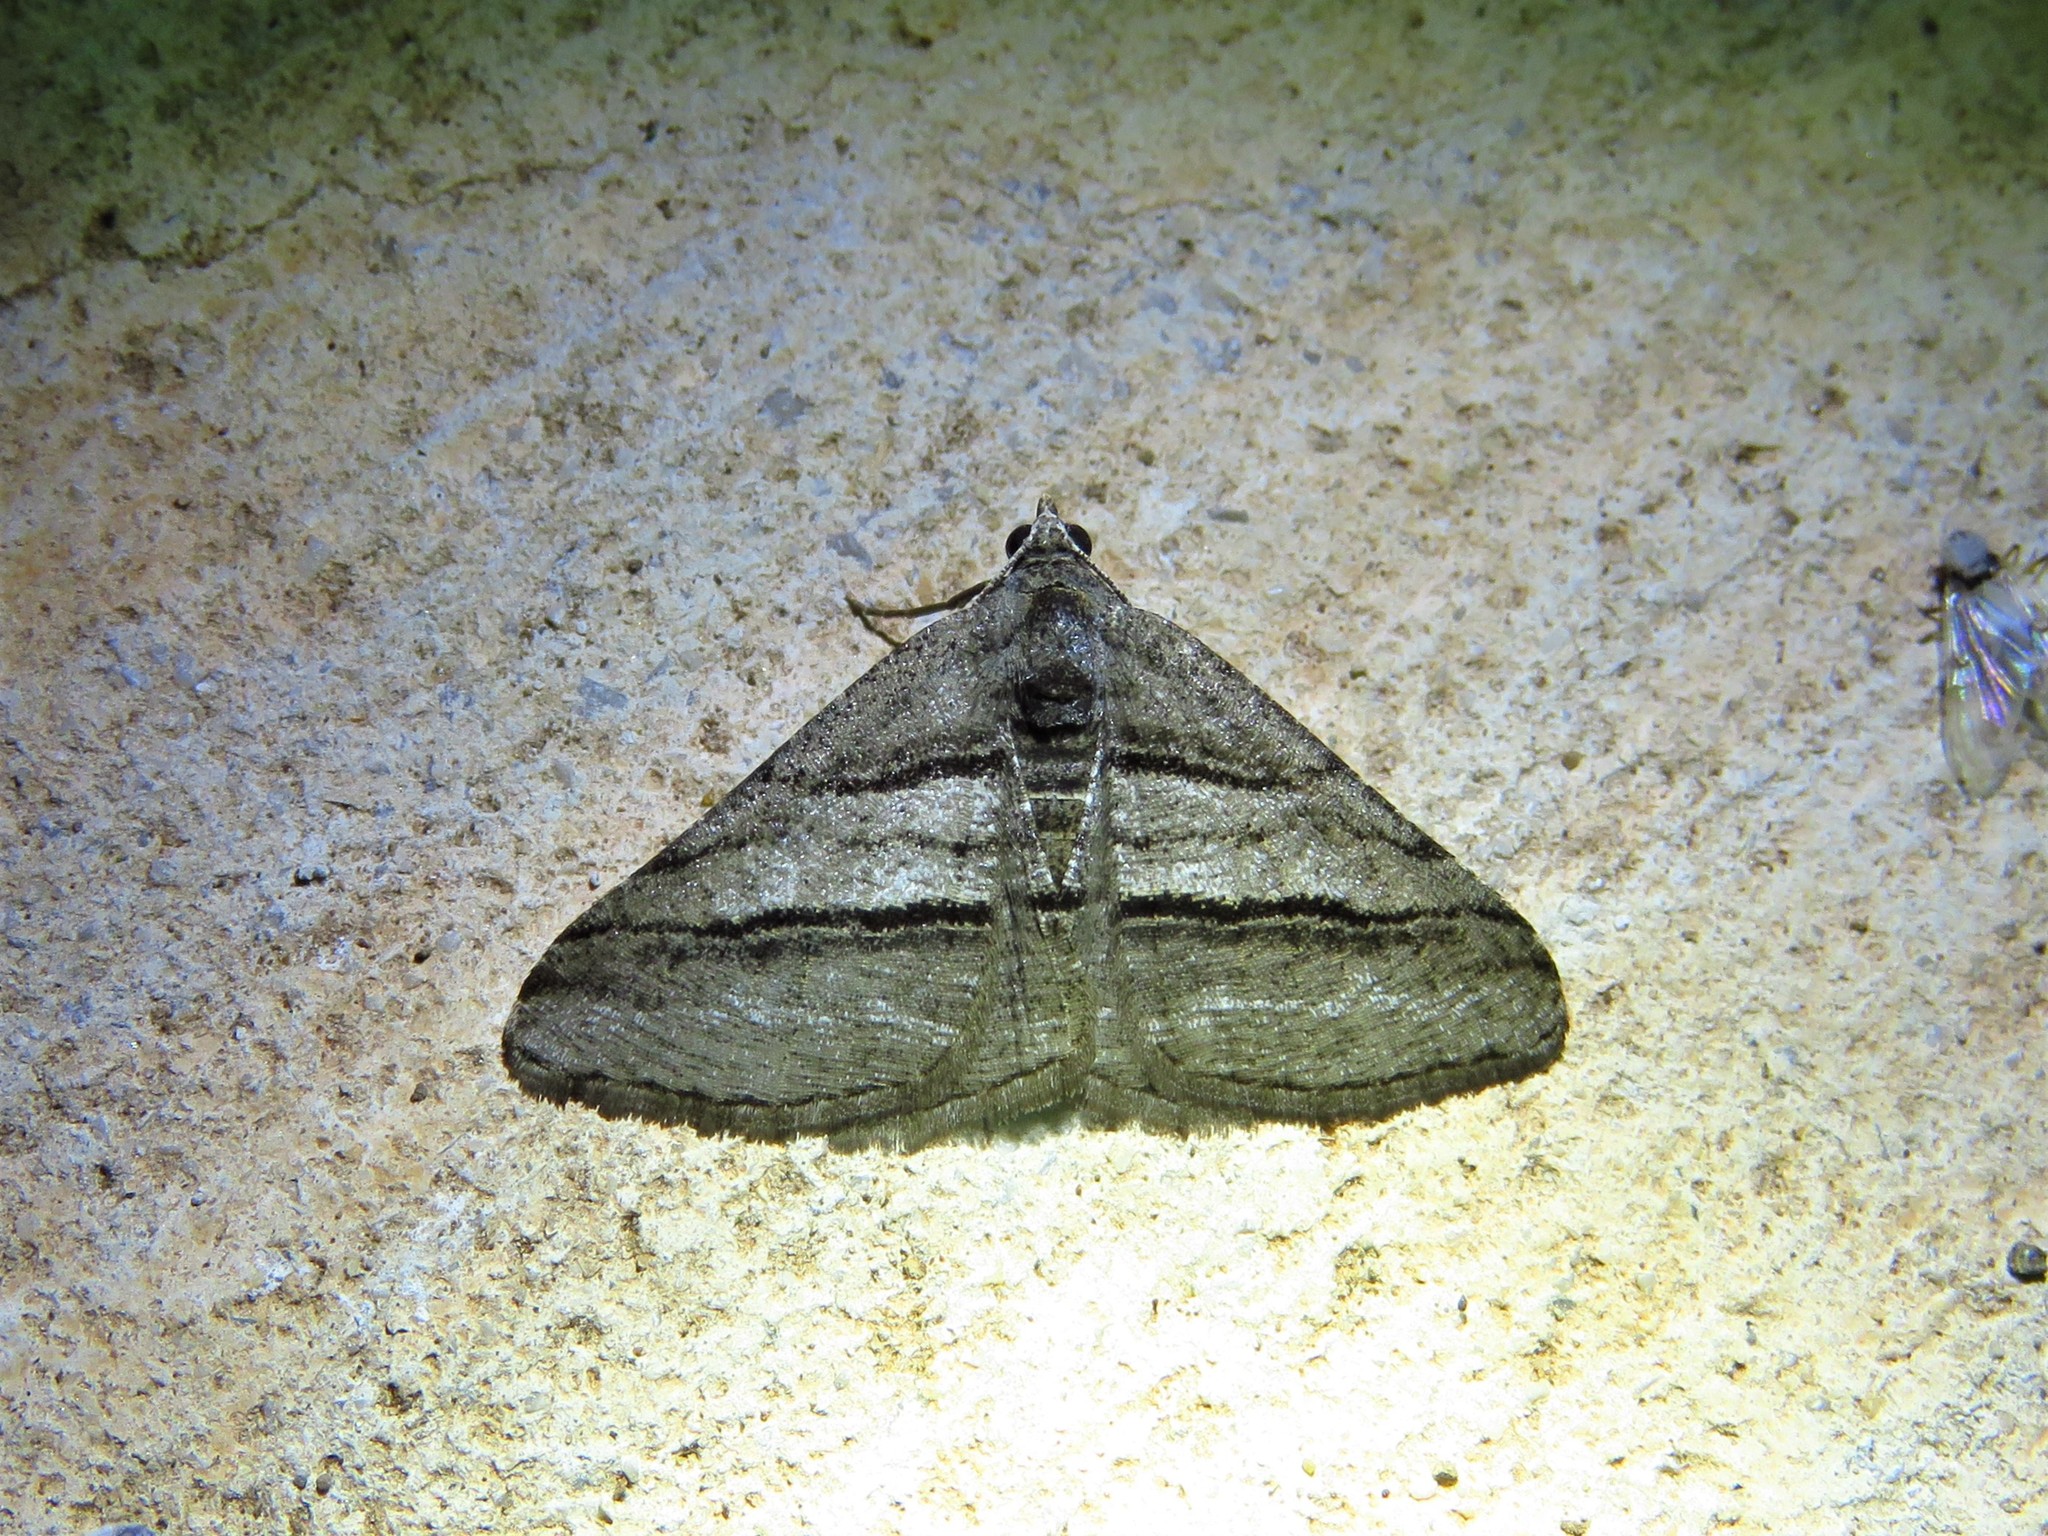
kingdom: Animalia
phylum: Arthropoda
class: Insecta
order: Lepidoptera
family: Geometridae
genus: Digrammia
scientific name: Digrammia atrofasciata
